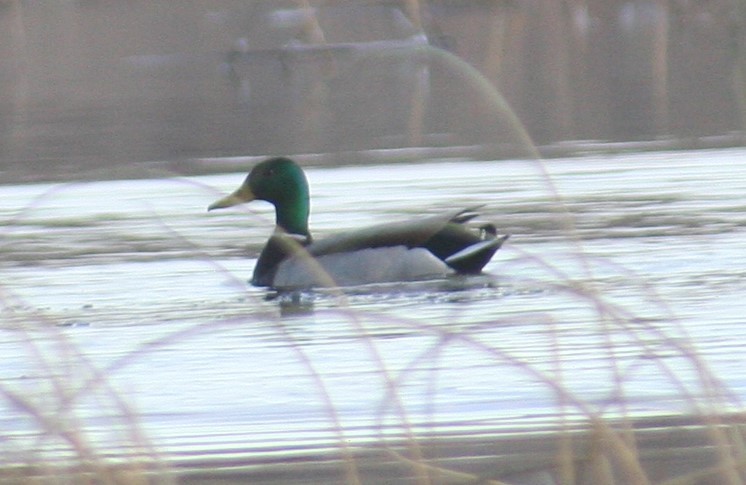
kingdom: Animalia
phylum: Chordata
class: Aves
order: Anseriformes
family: Anatidae
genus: Anas
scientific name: Anas platyrhynchos
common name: Mallard
